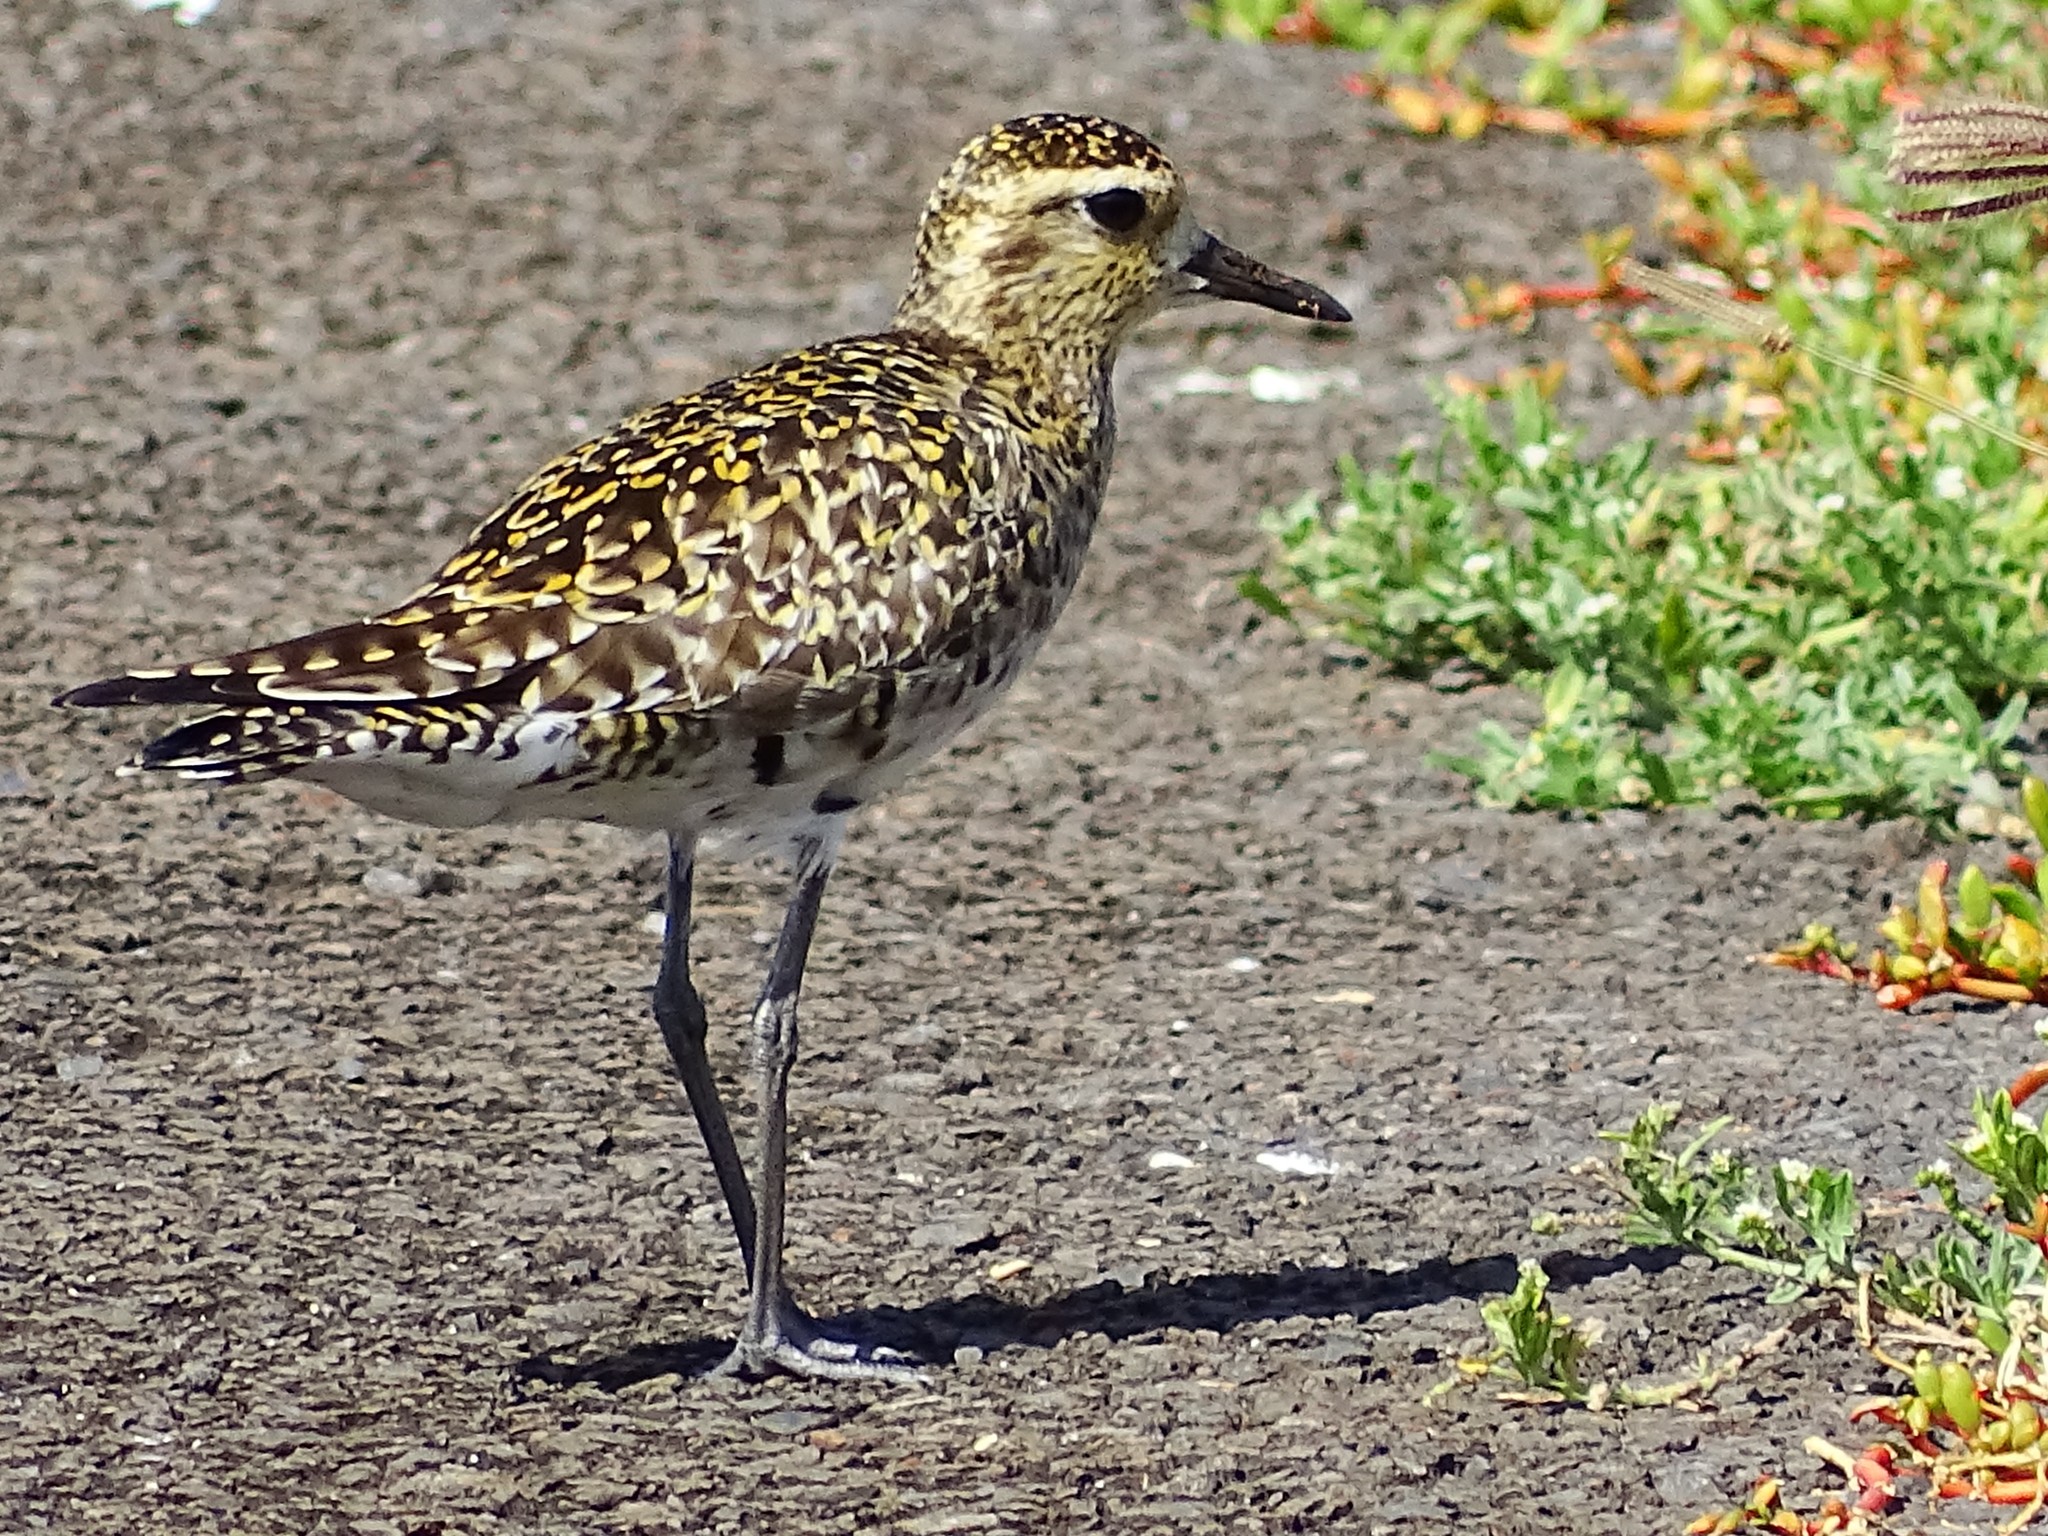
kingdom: Animalia
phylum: Chordata
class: Aves
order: Charadriiformes
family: Charadriidae
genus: Pluvialis
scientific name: Pluvialis fulva
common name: Pacific golden plover
